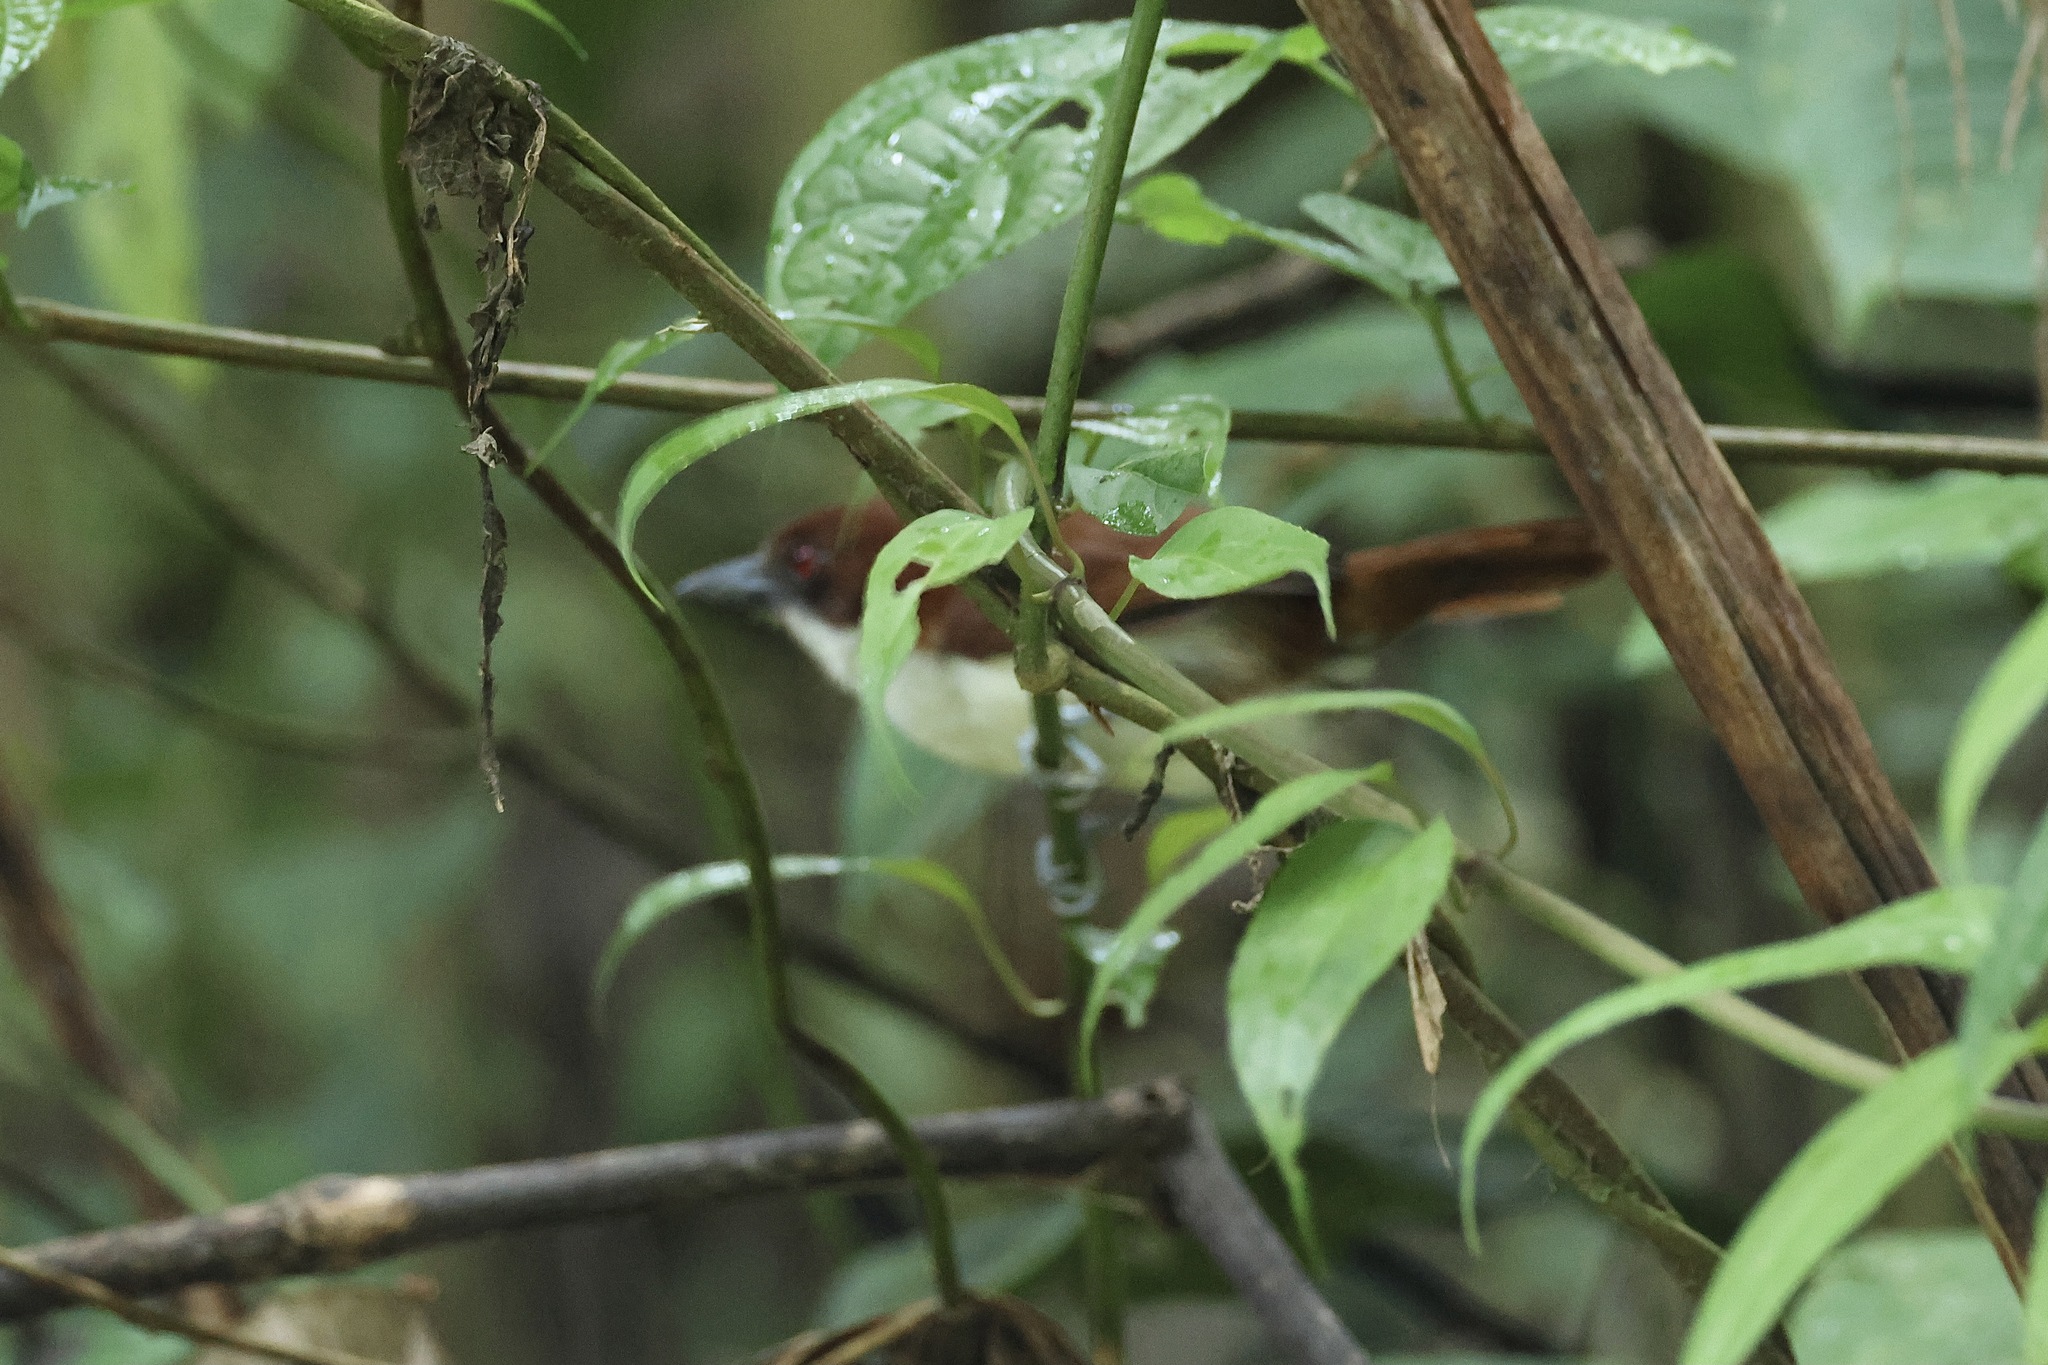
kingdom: Animalia
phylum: Chordata
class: Aves
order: Passeriformes
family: Thamnophilidae
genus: Taraba
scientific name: Taraba major
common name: Great antshrike
